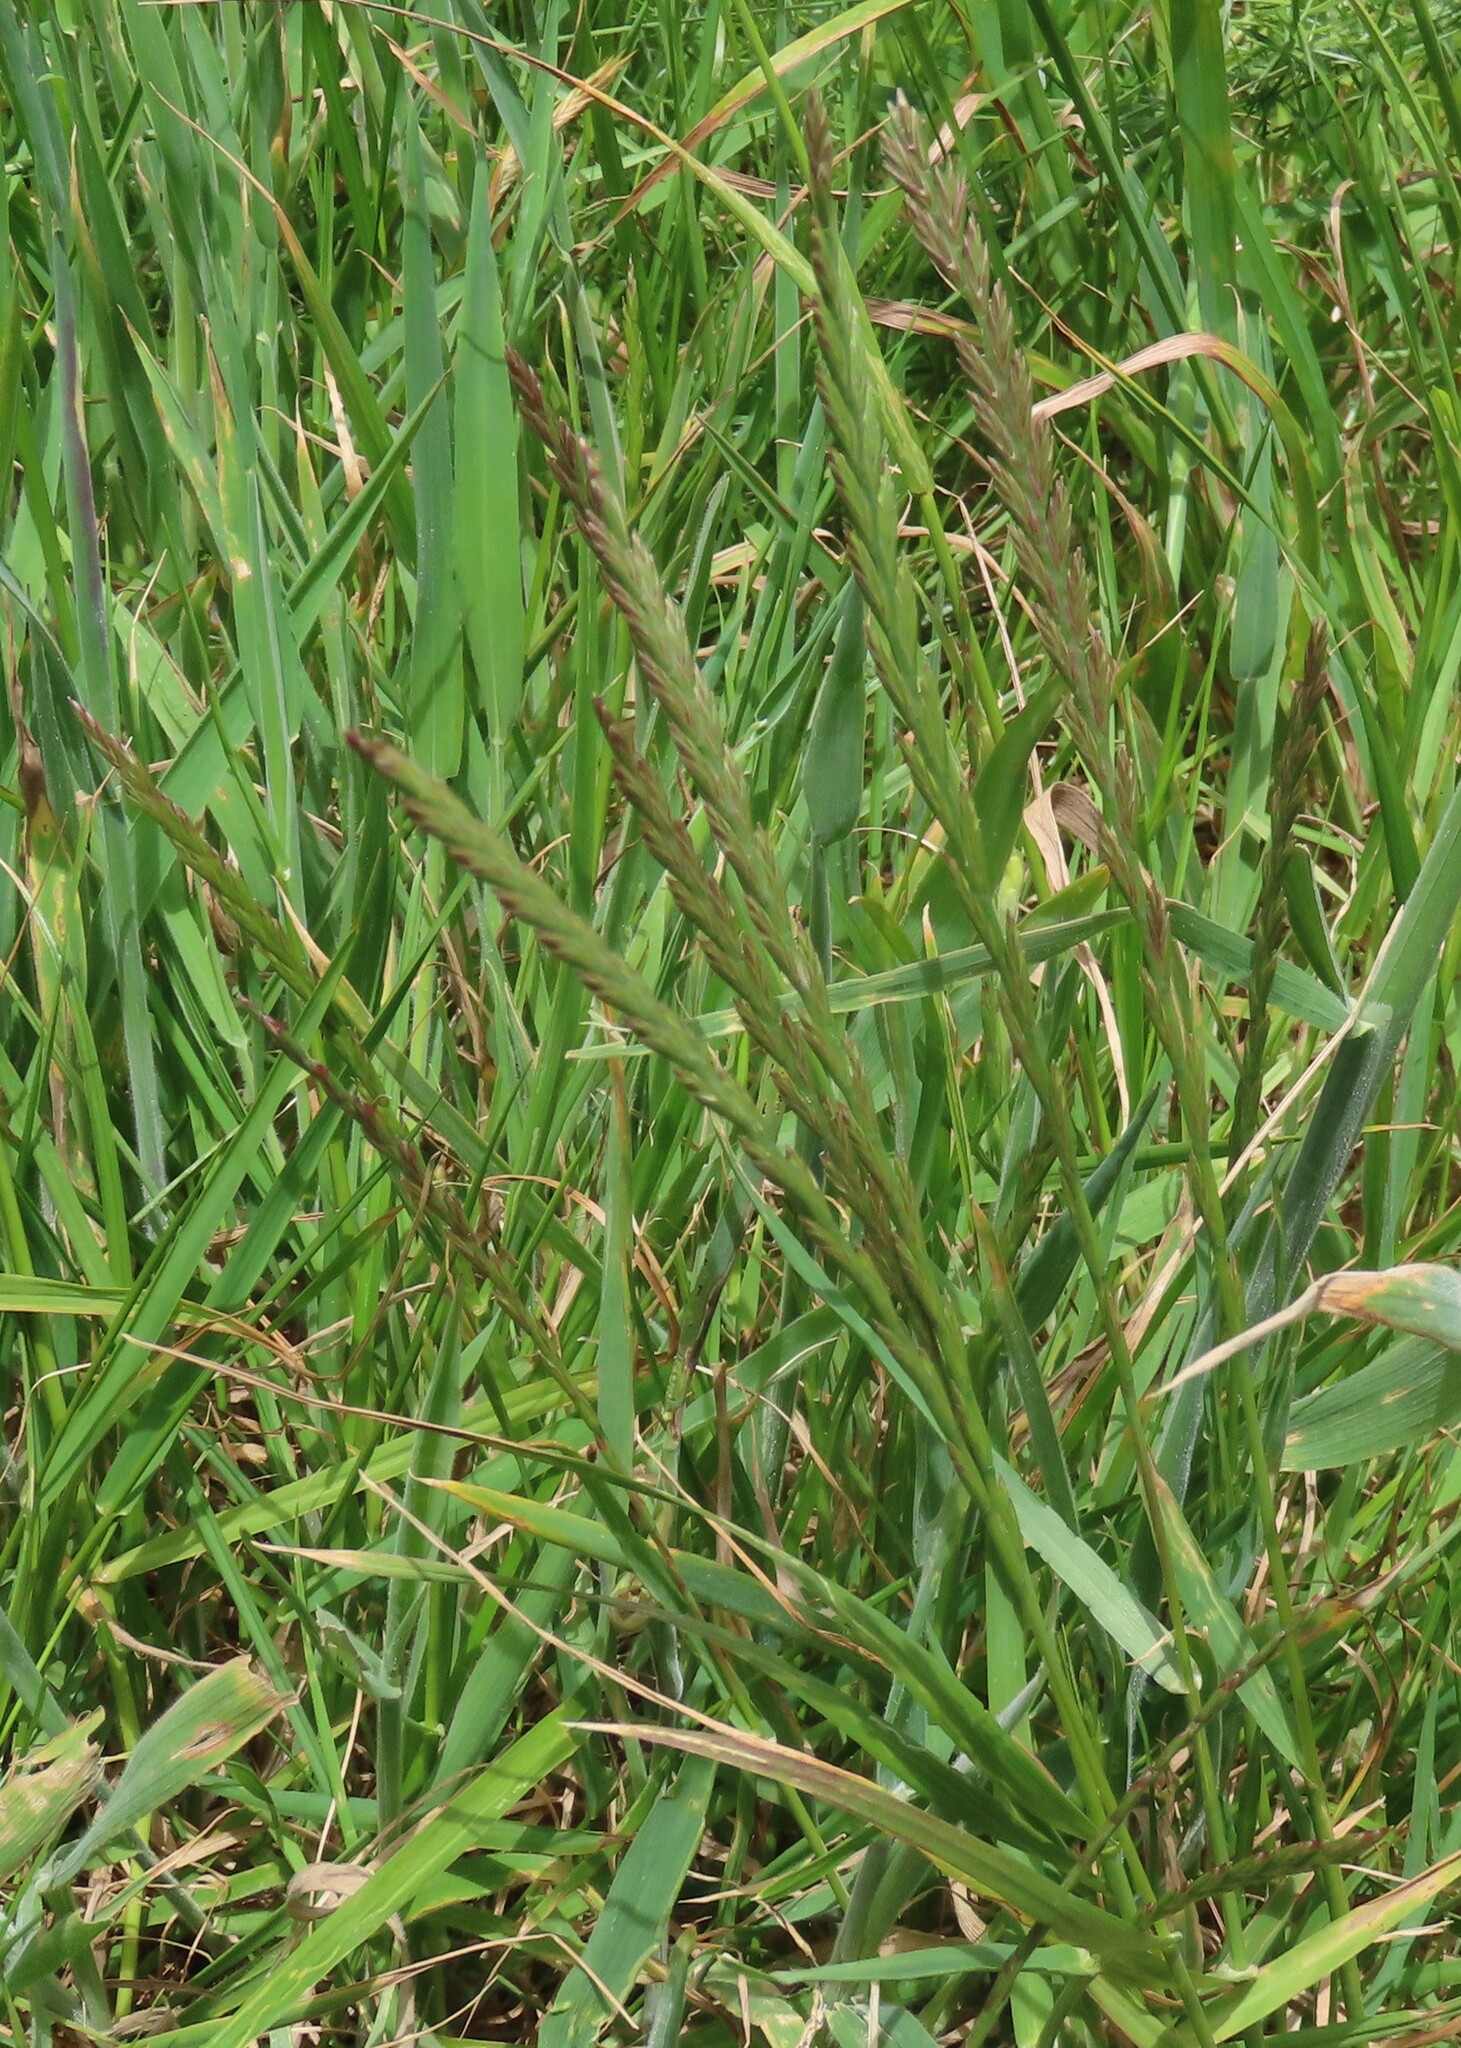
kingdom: Plantae
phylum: Tracheophyta
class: Liliopsida
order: Poales
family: Poaceae
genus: Lolium
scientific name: Lolium perenne
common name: Perennial ryegrass
